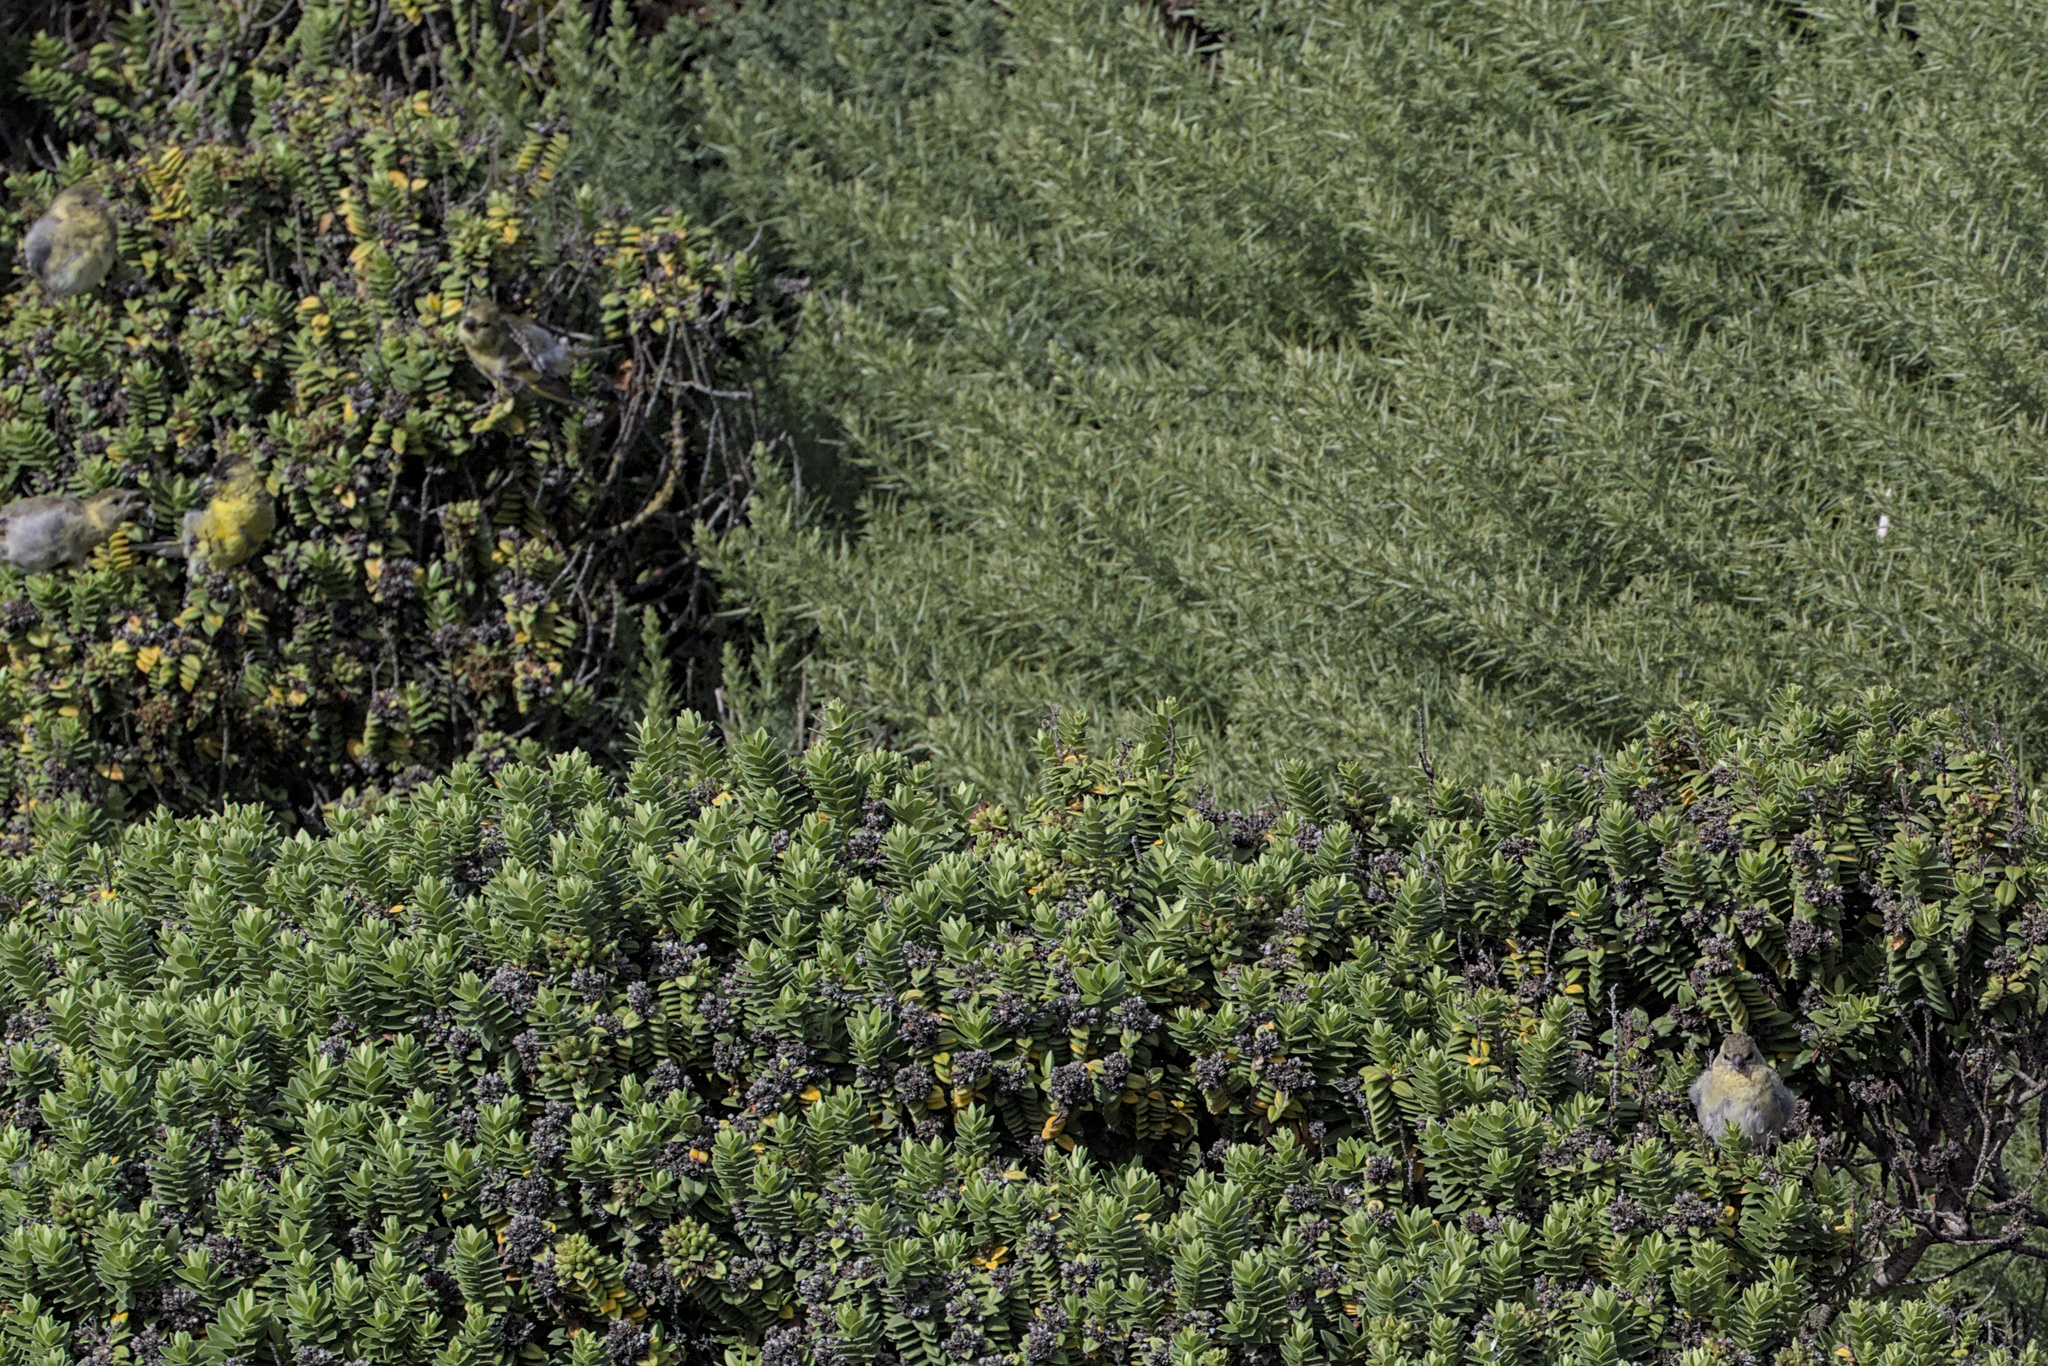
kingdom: Animalia
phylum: Chordata
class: Aves
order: Passeriformes
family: Fringillidae
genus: Spinus
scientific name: Spinus barbatus
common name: Black-chinned siskin
